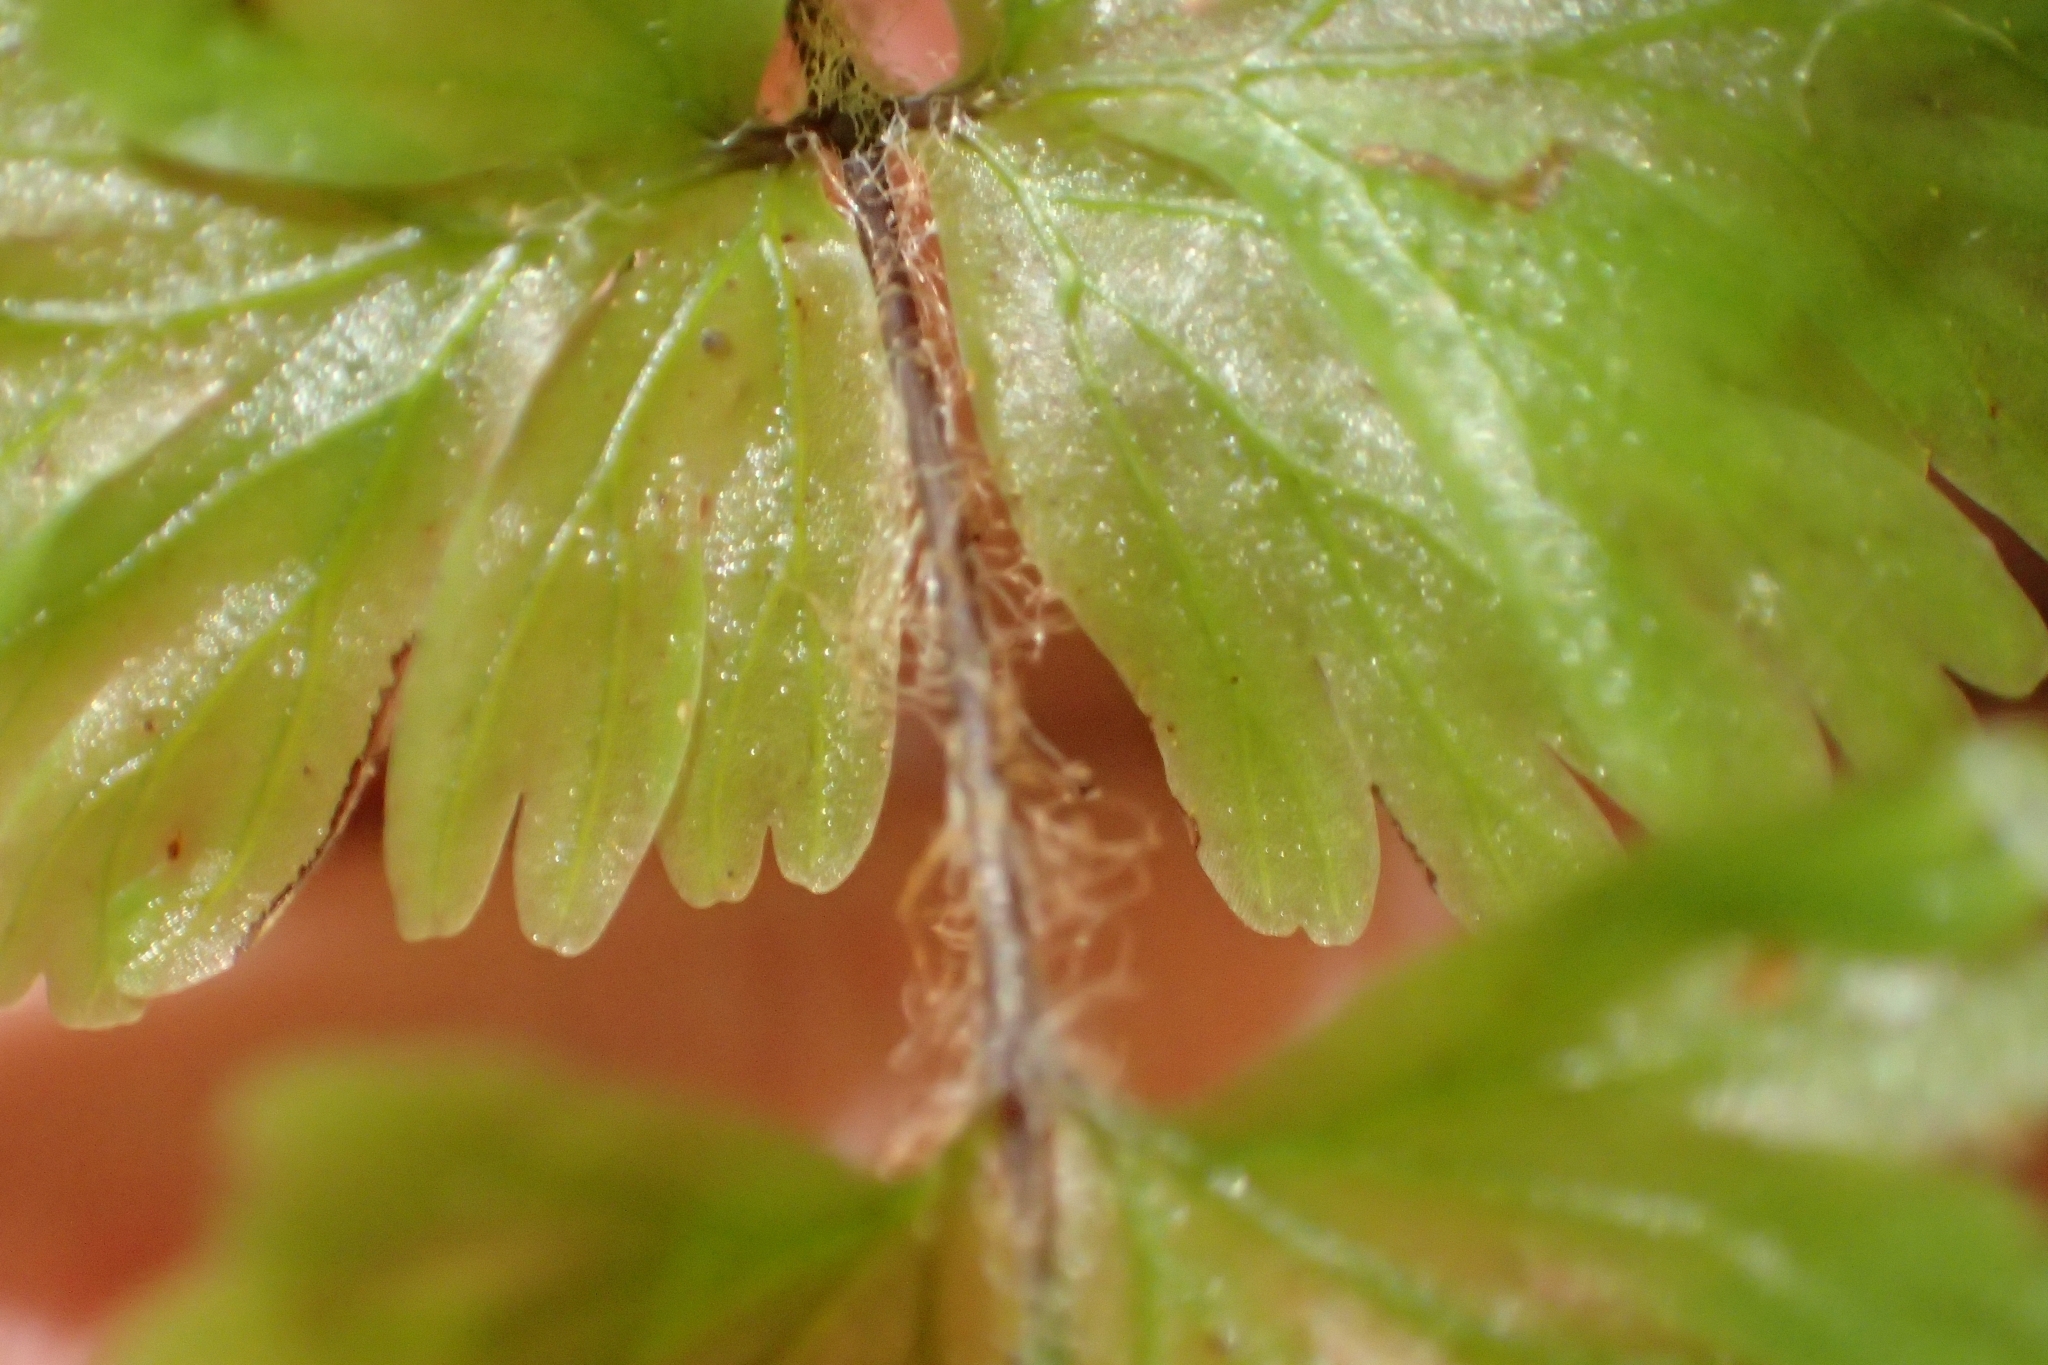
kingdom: Plantae
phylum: Tracheophyta
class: Polypodiopsida
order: Hymenophyllales
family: Hymenophyllaceae
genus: Hymenophyllum
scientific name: Hymenophyllum flabellatum
